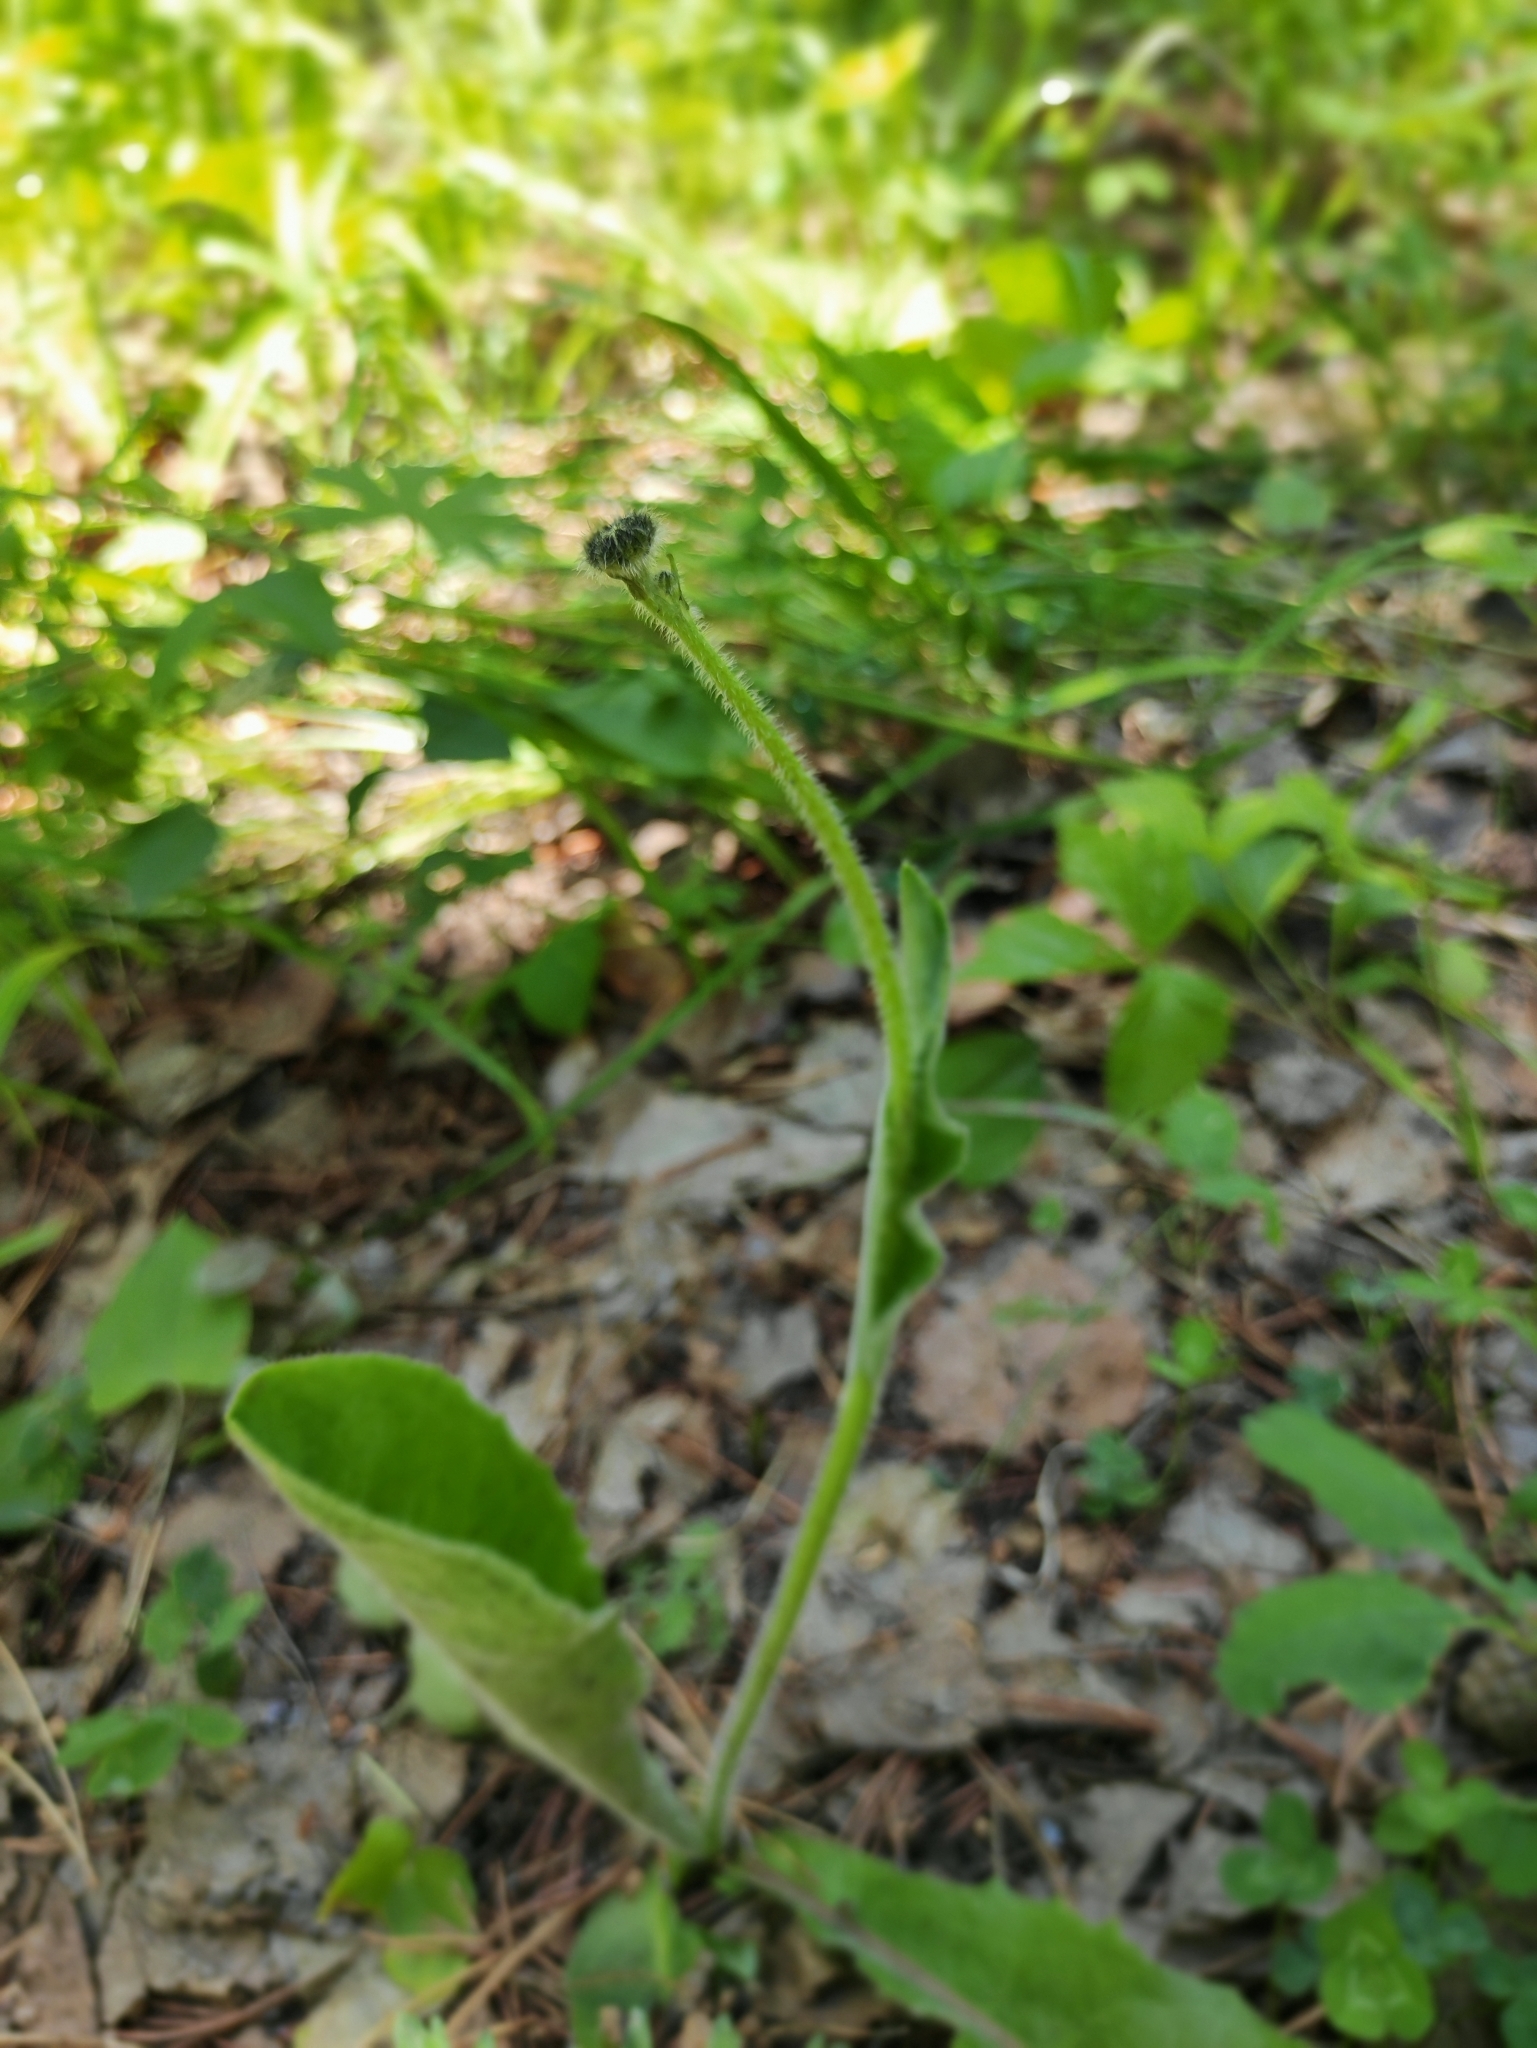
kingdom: Plantae
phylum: Tracheophyta
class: Magnoliopsida
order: Asterales
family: Asteraceae
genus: Trommsdorffia
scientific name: Trommsdorffia maculata
